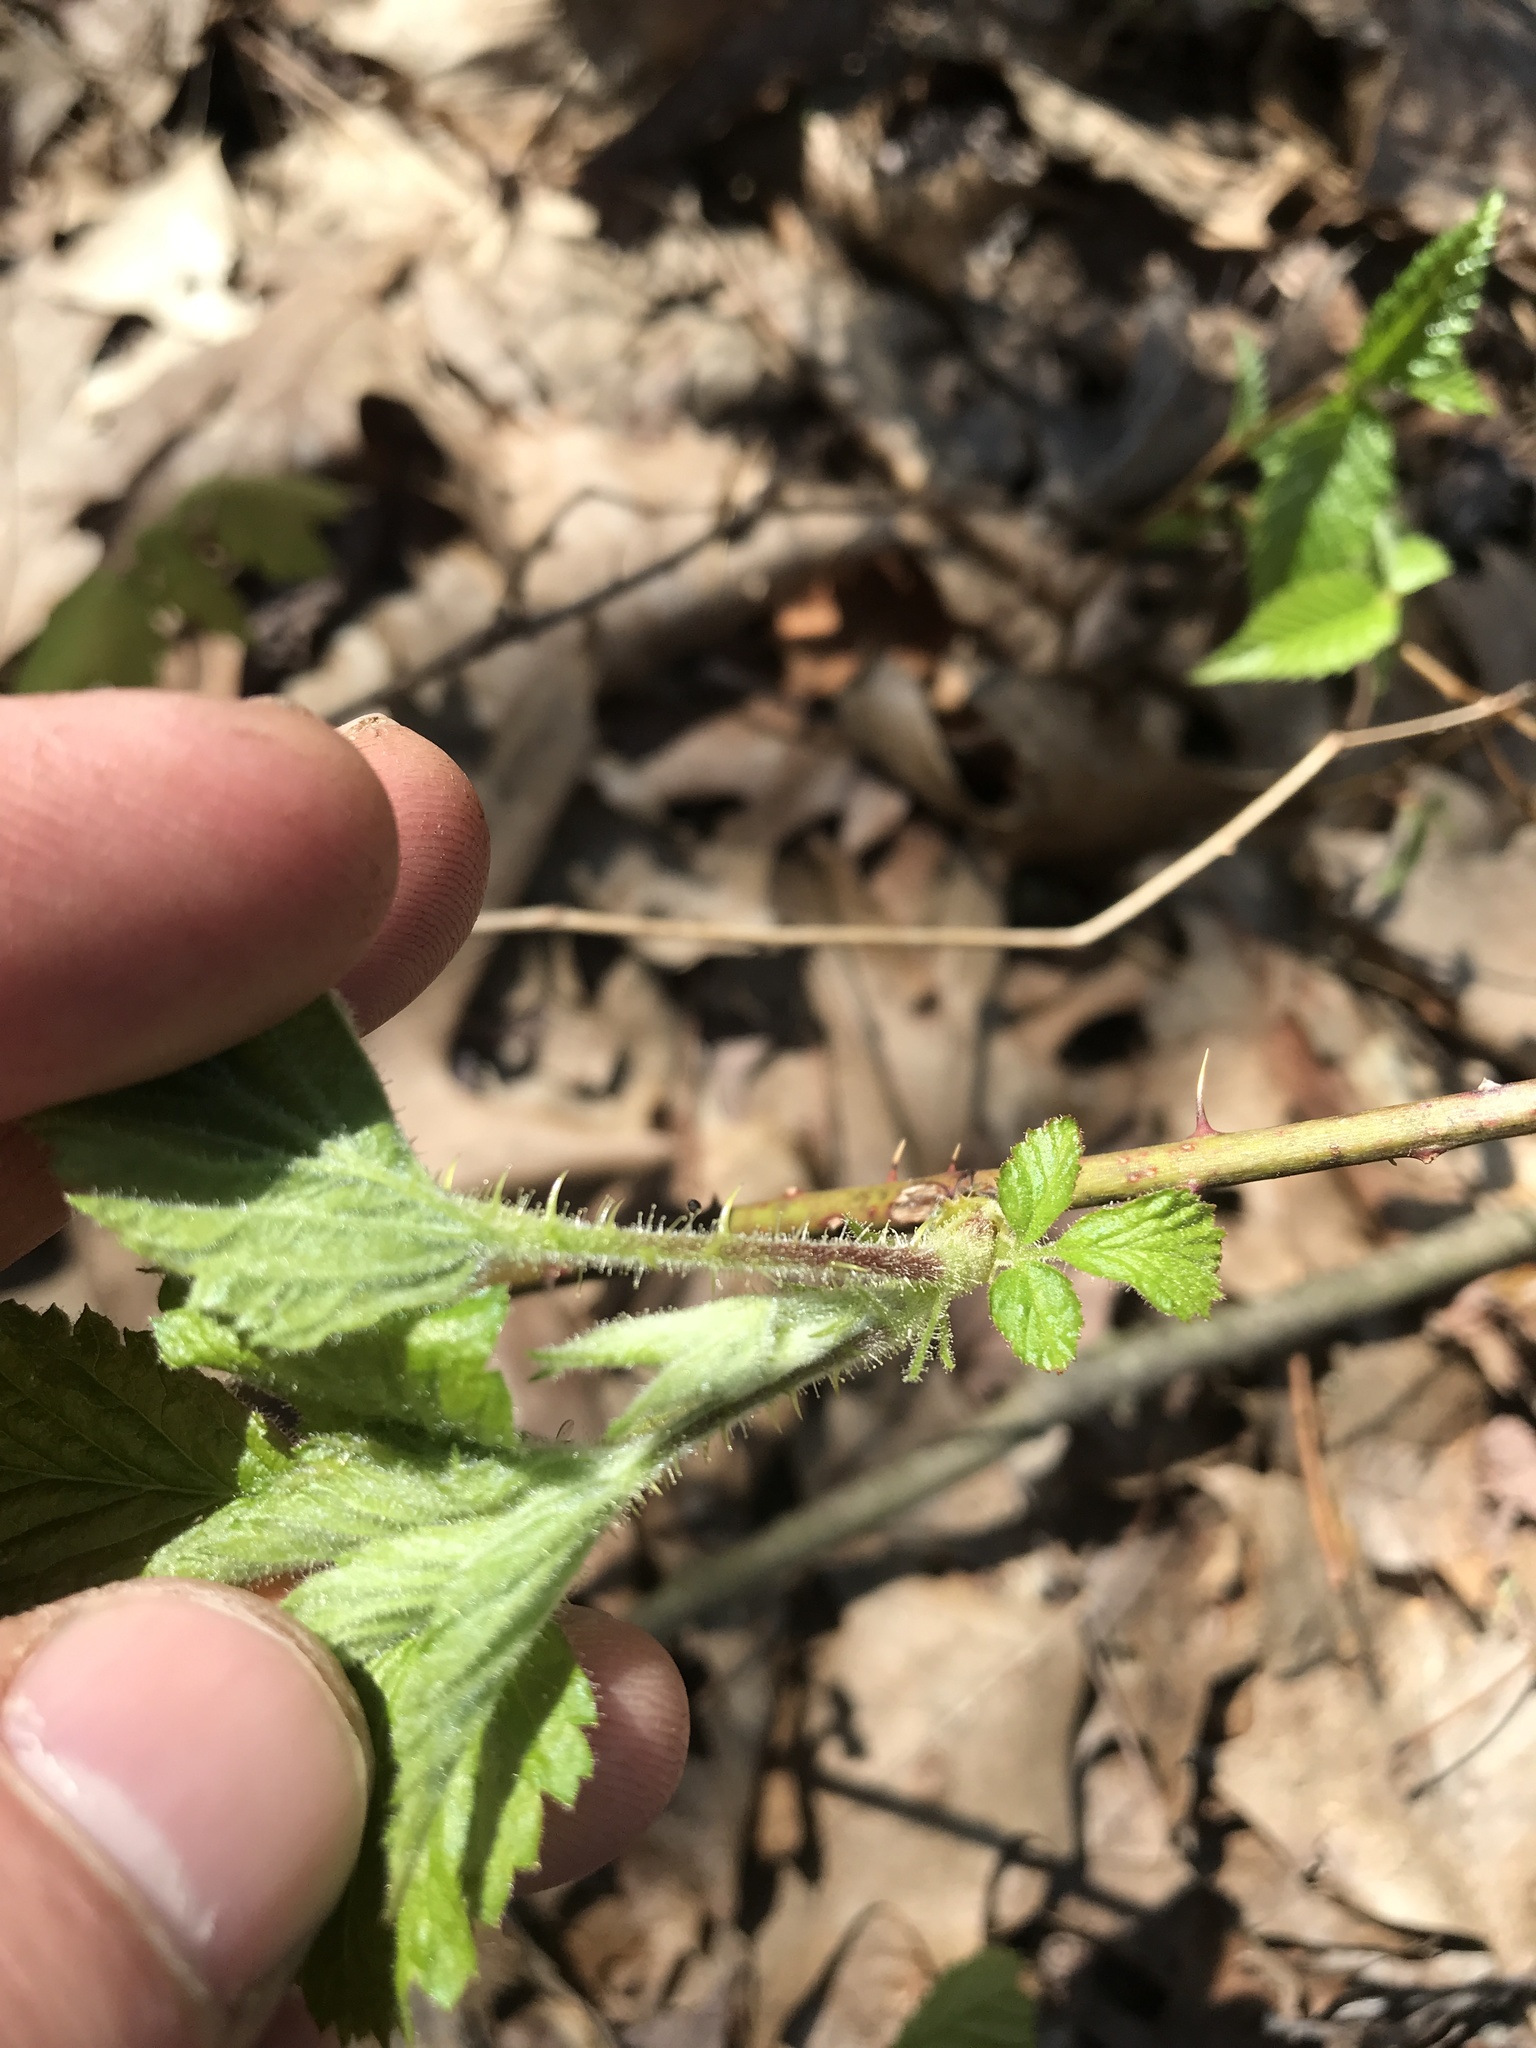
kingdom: Plantae
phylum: Tracheophyta
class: Magnoliopsida
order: Rosales
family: Rosaceae
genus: Rubus
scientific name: Rubus idaeus
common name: Raspberry
